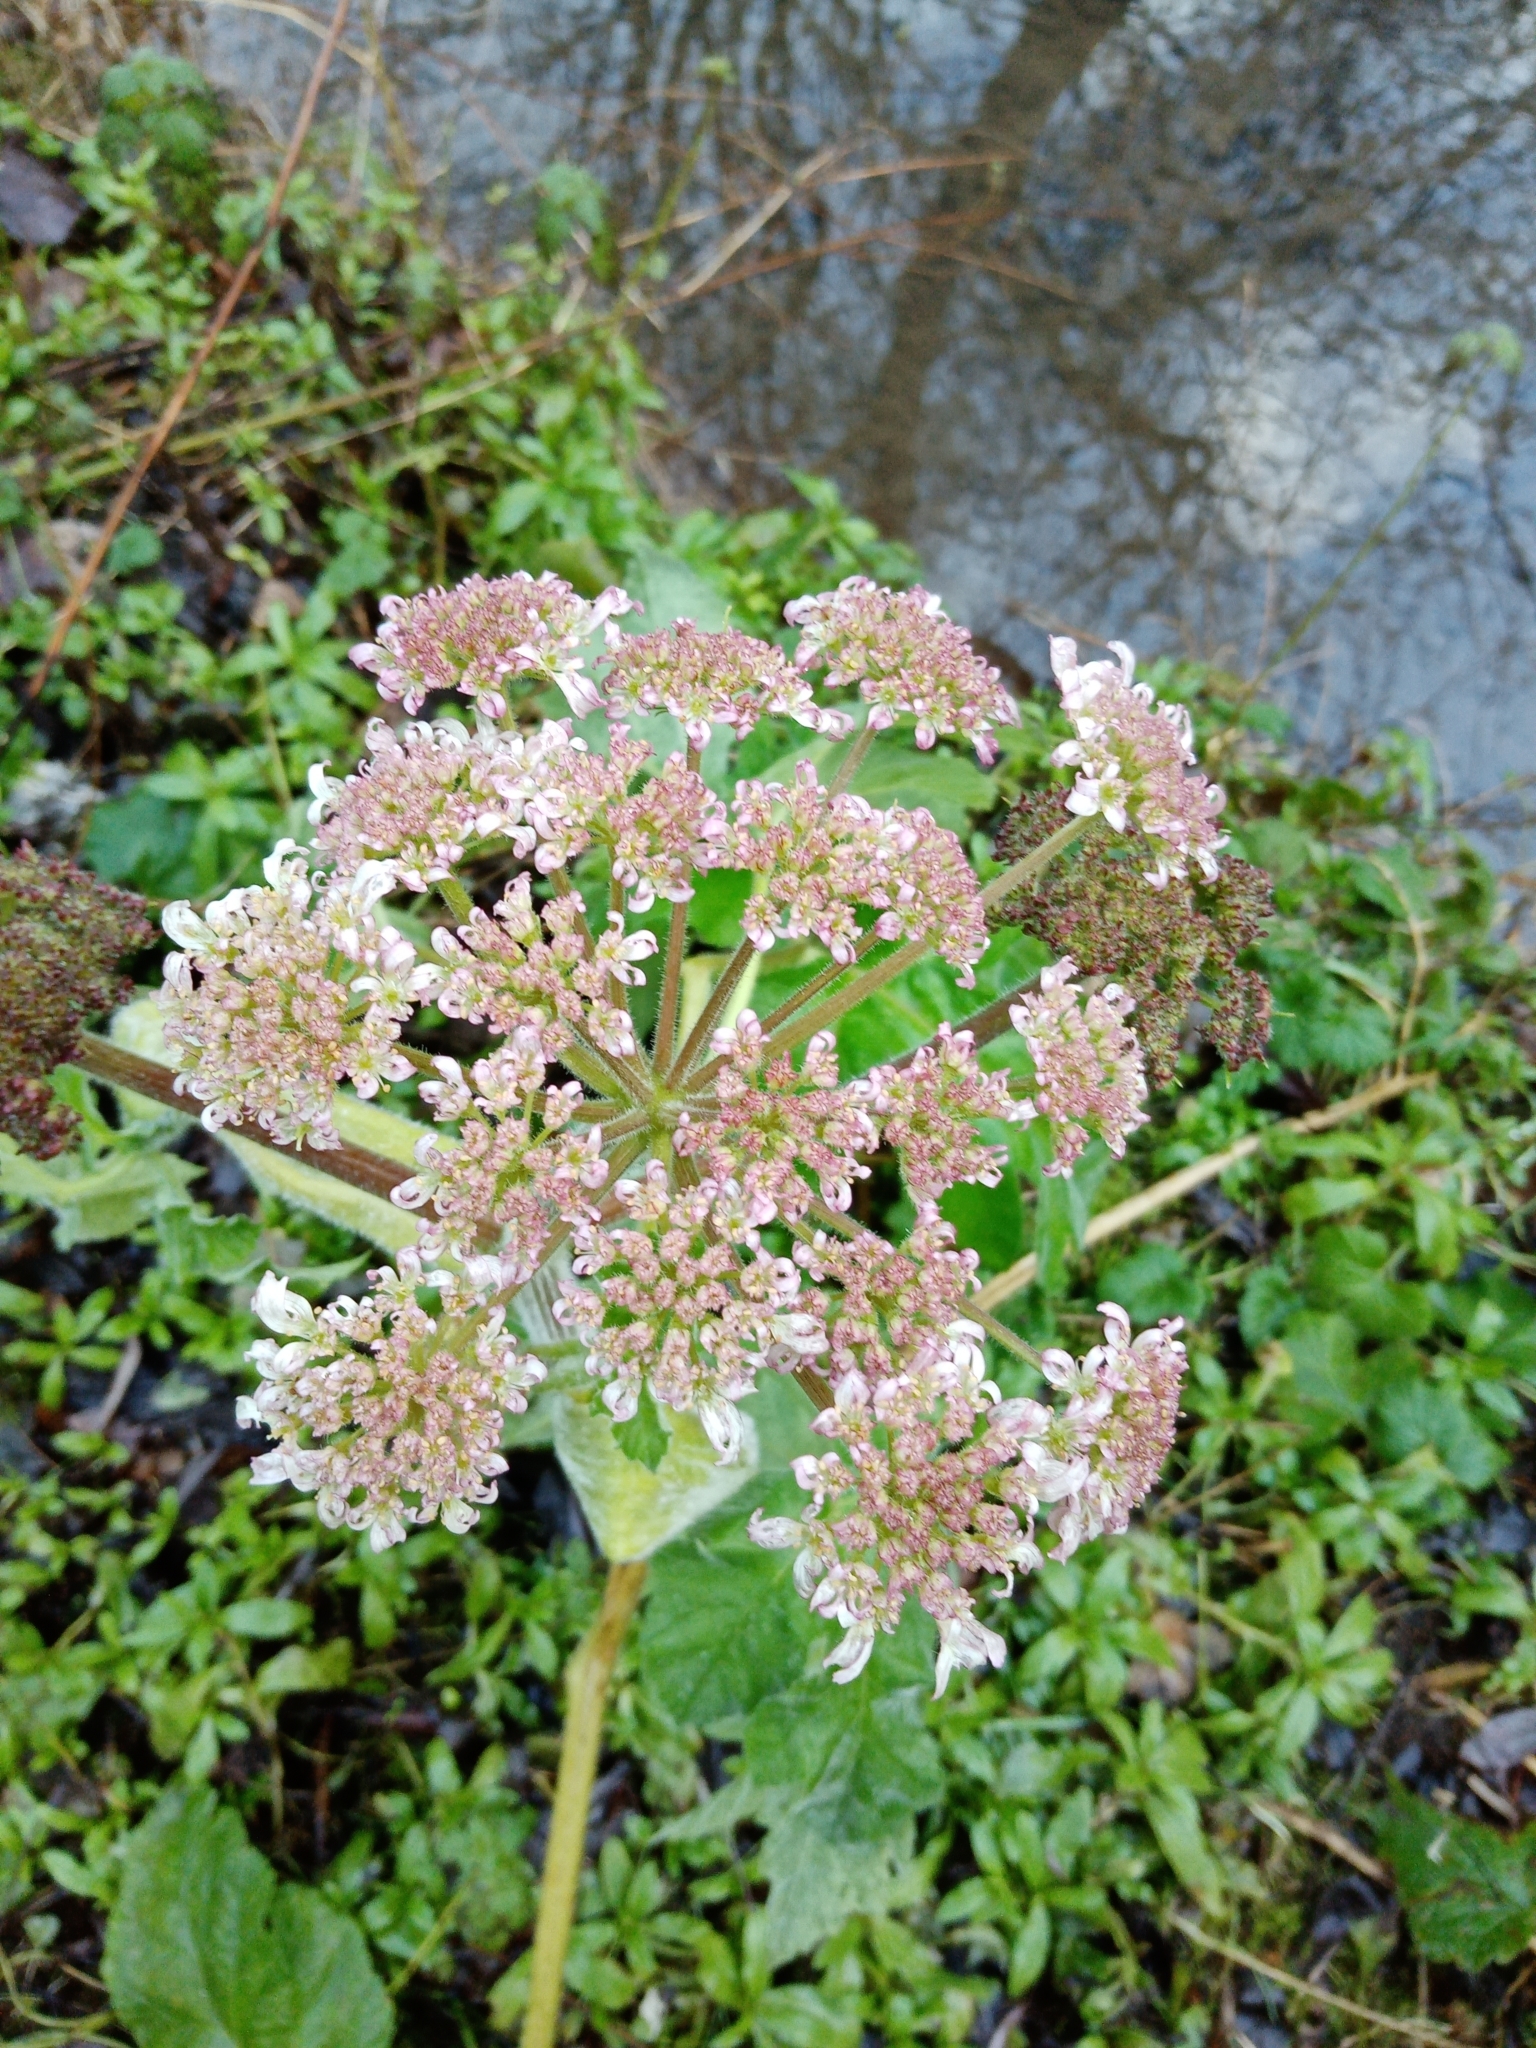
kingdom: Plantae
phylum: Tracheophyta
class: Magnoliopsida
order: Apiales
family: Apiaceae
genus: Heracleum
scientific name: Heracleum sphondylium
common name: Hogweed
